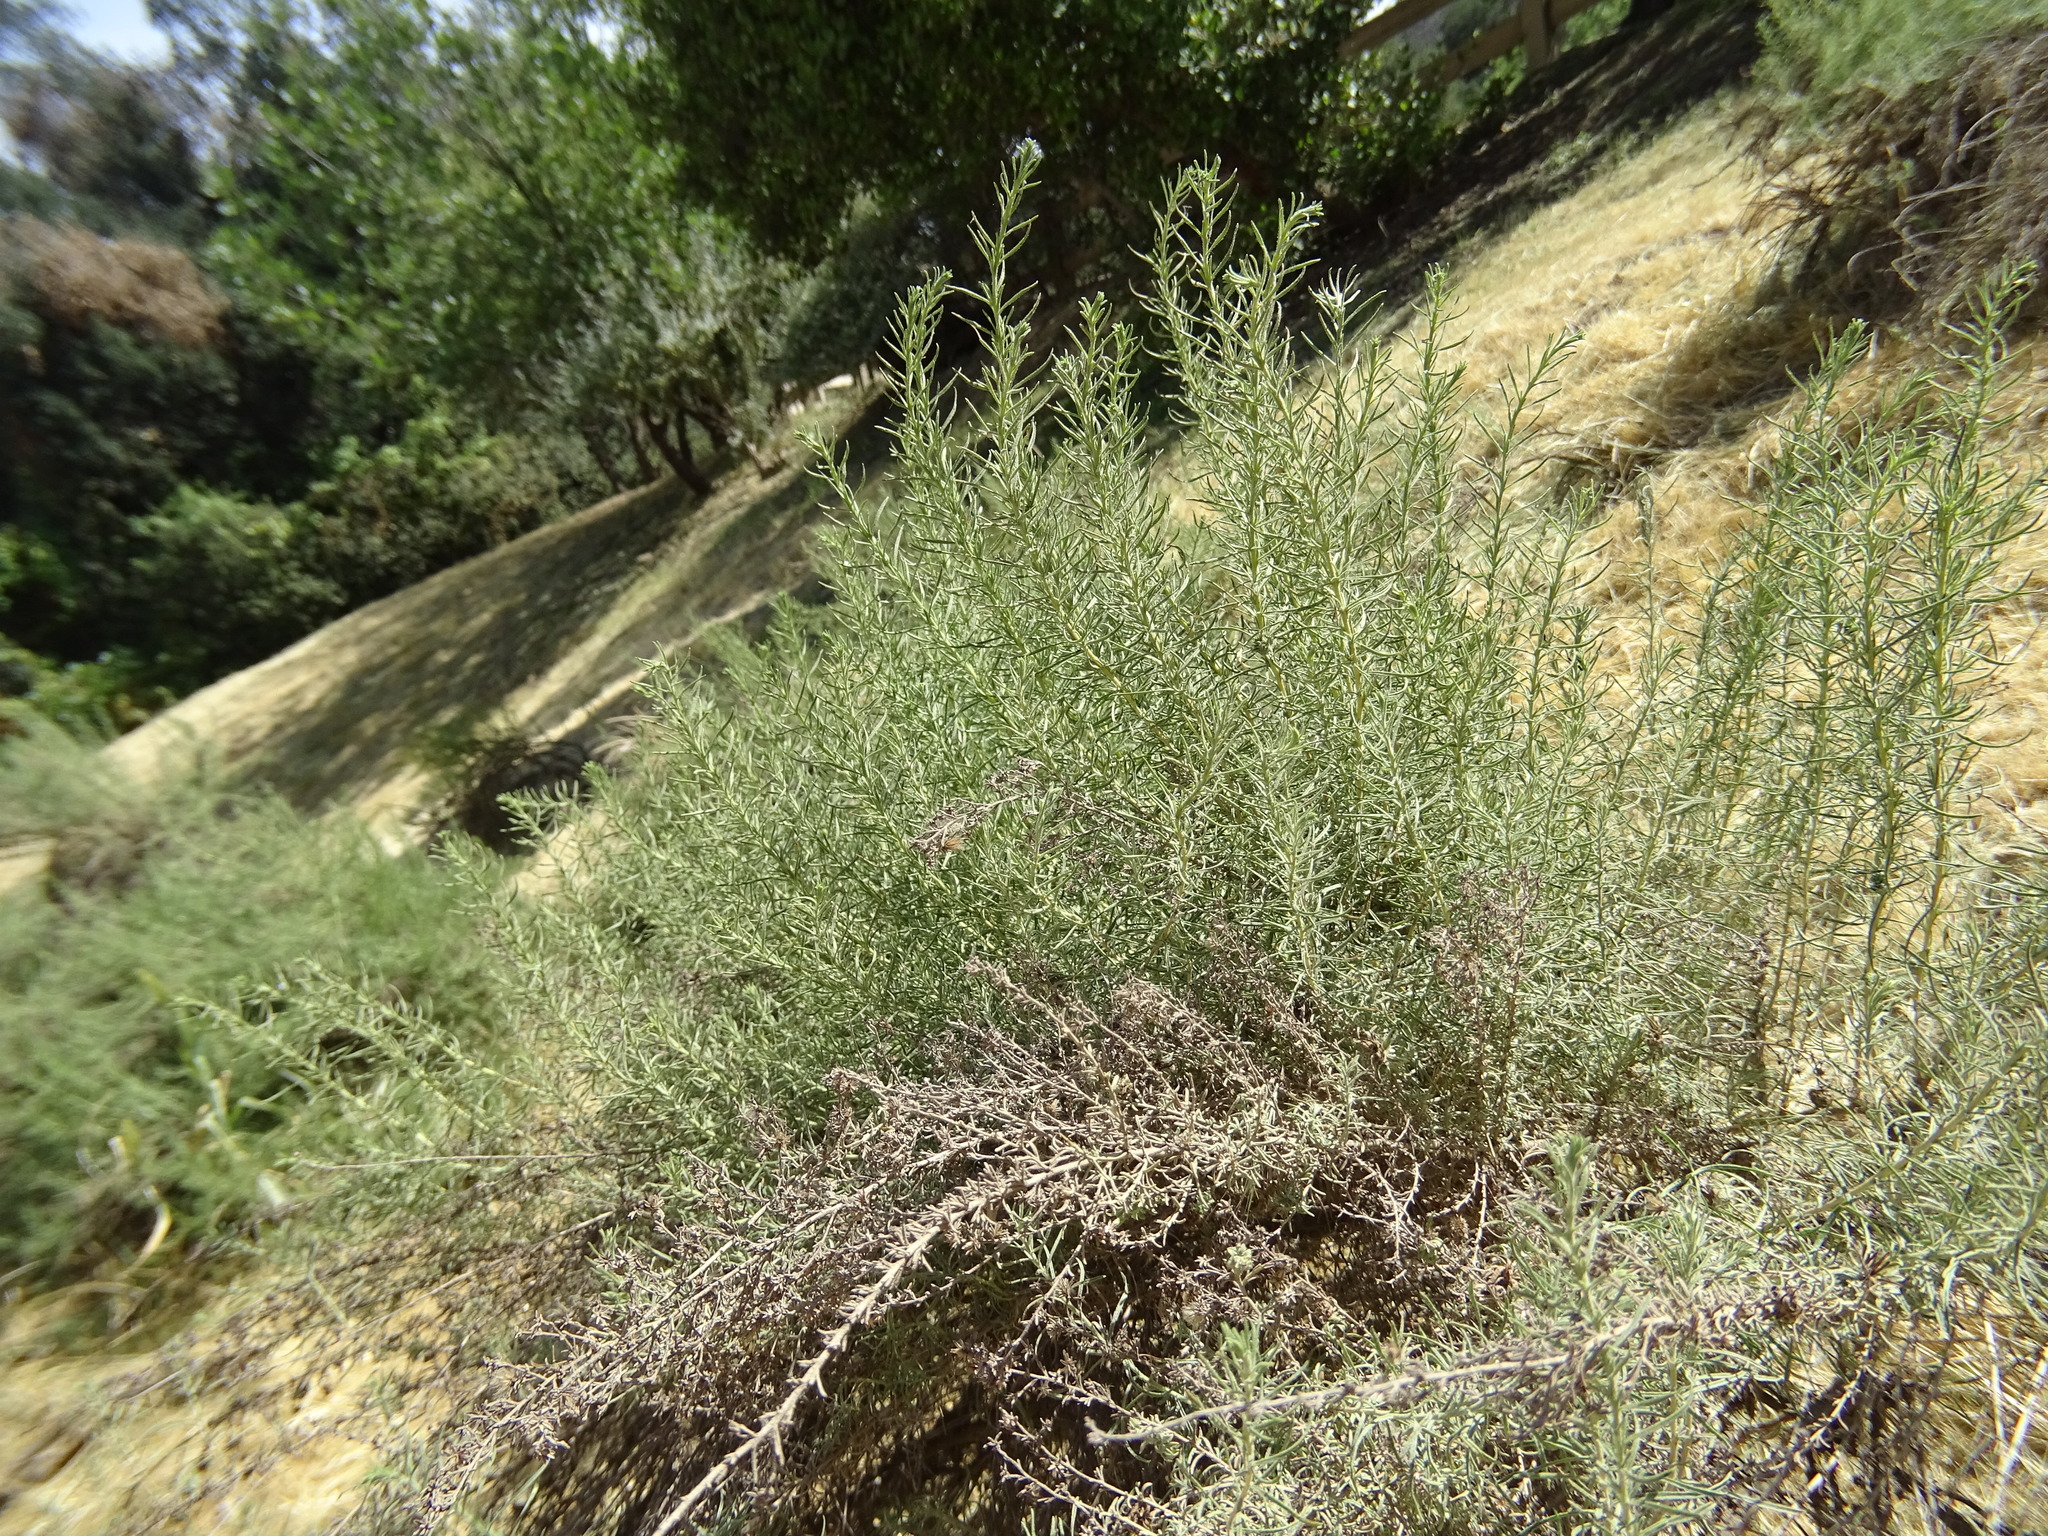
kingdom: Plantae
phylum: Tracheophyta
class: Magnoliopsida
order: Asterales
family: Asteraceae
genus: Artemisia
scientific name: Artemisia californica
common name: California sagebrush
